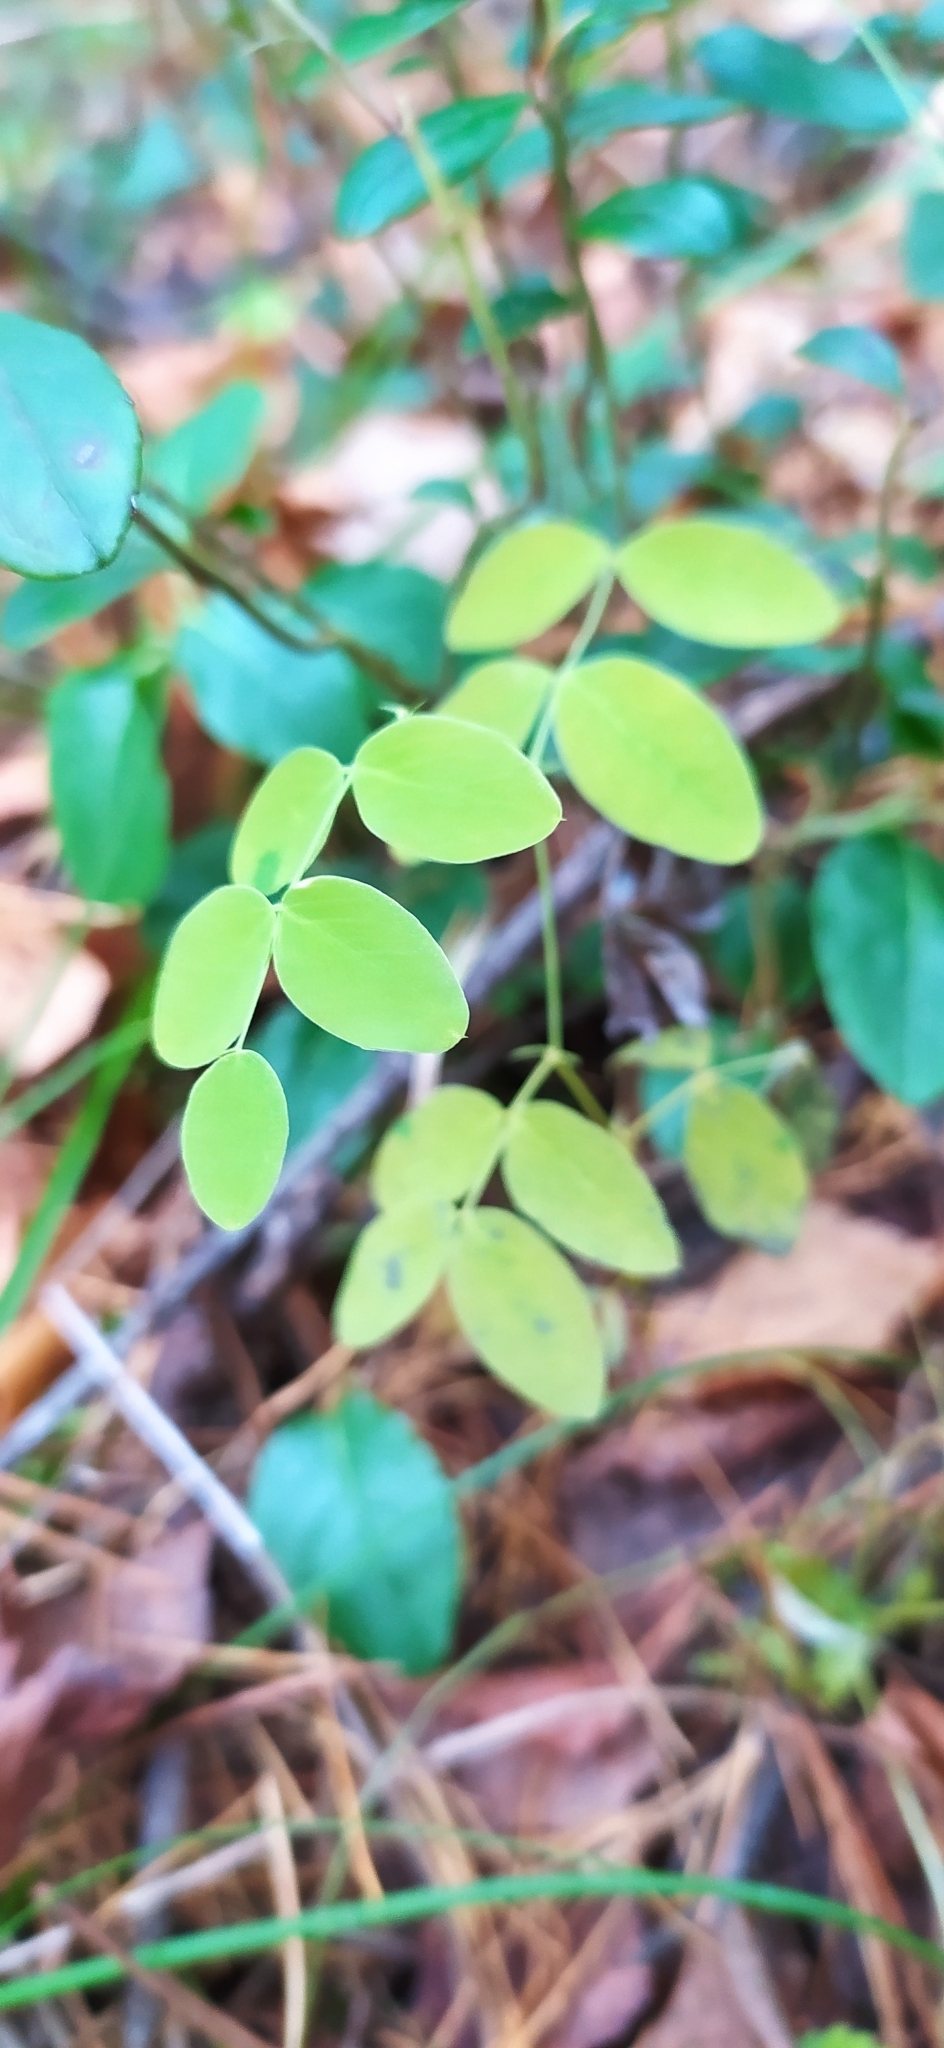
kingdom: Plantae
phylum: Tracheophyta
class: Magnoliopsida
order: Fabales
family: Fabaceae
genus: Lathyrus
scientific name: Lathyrus humilis
